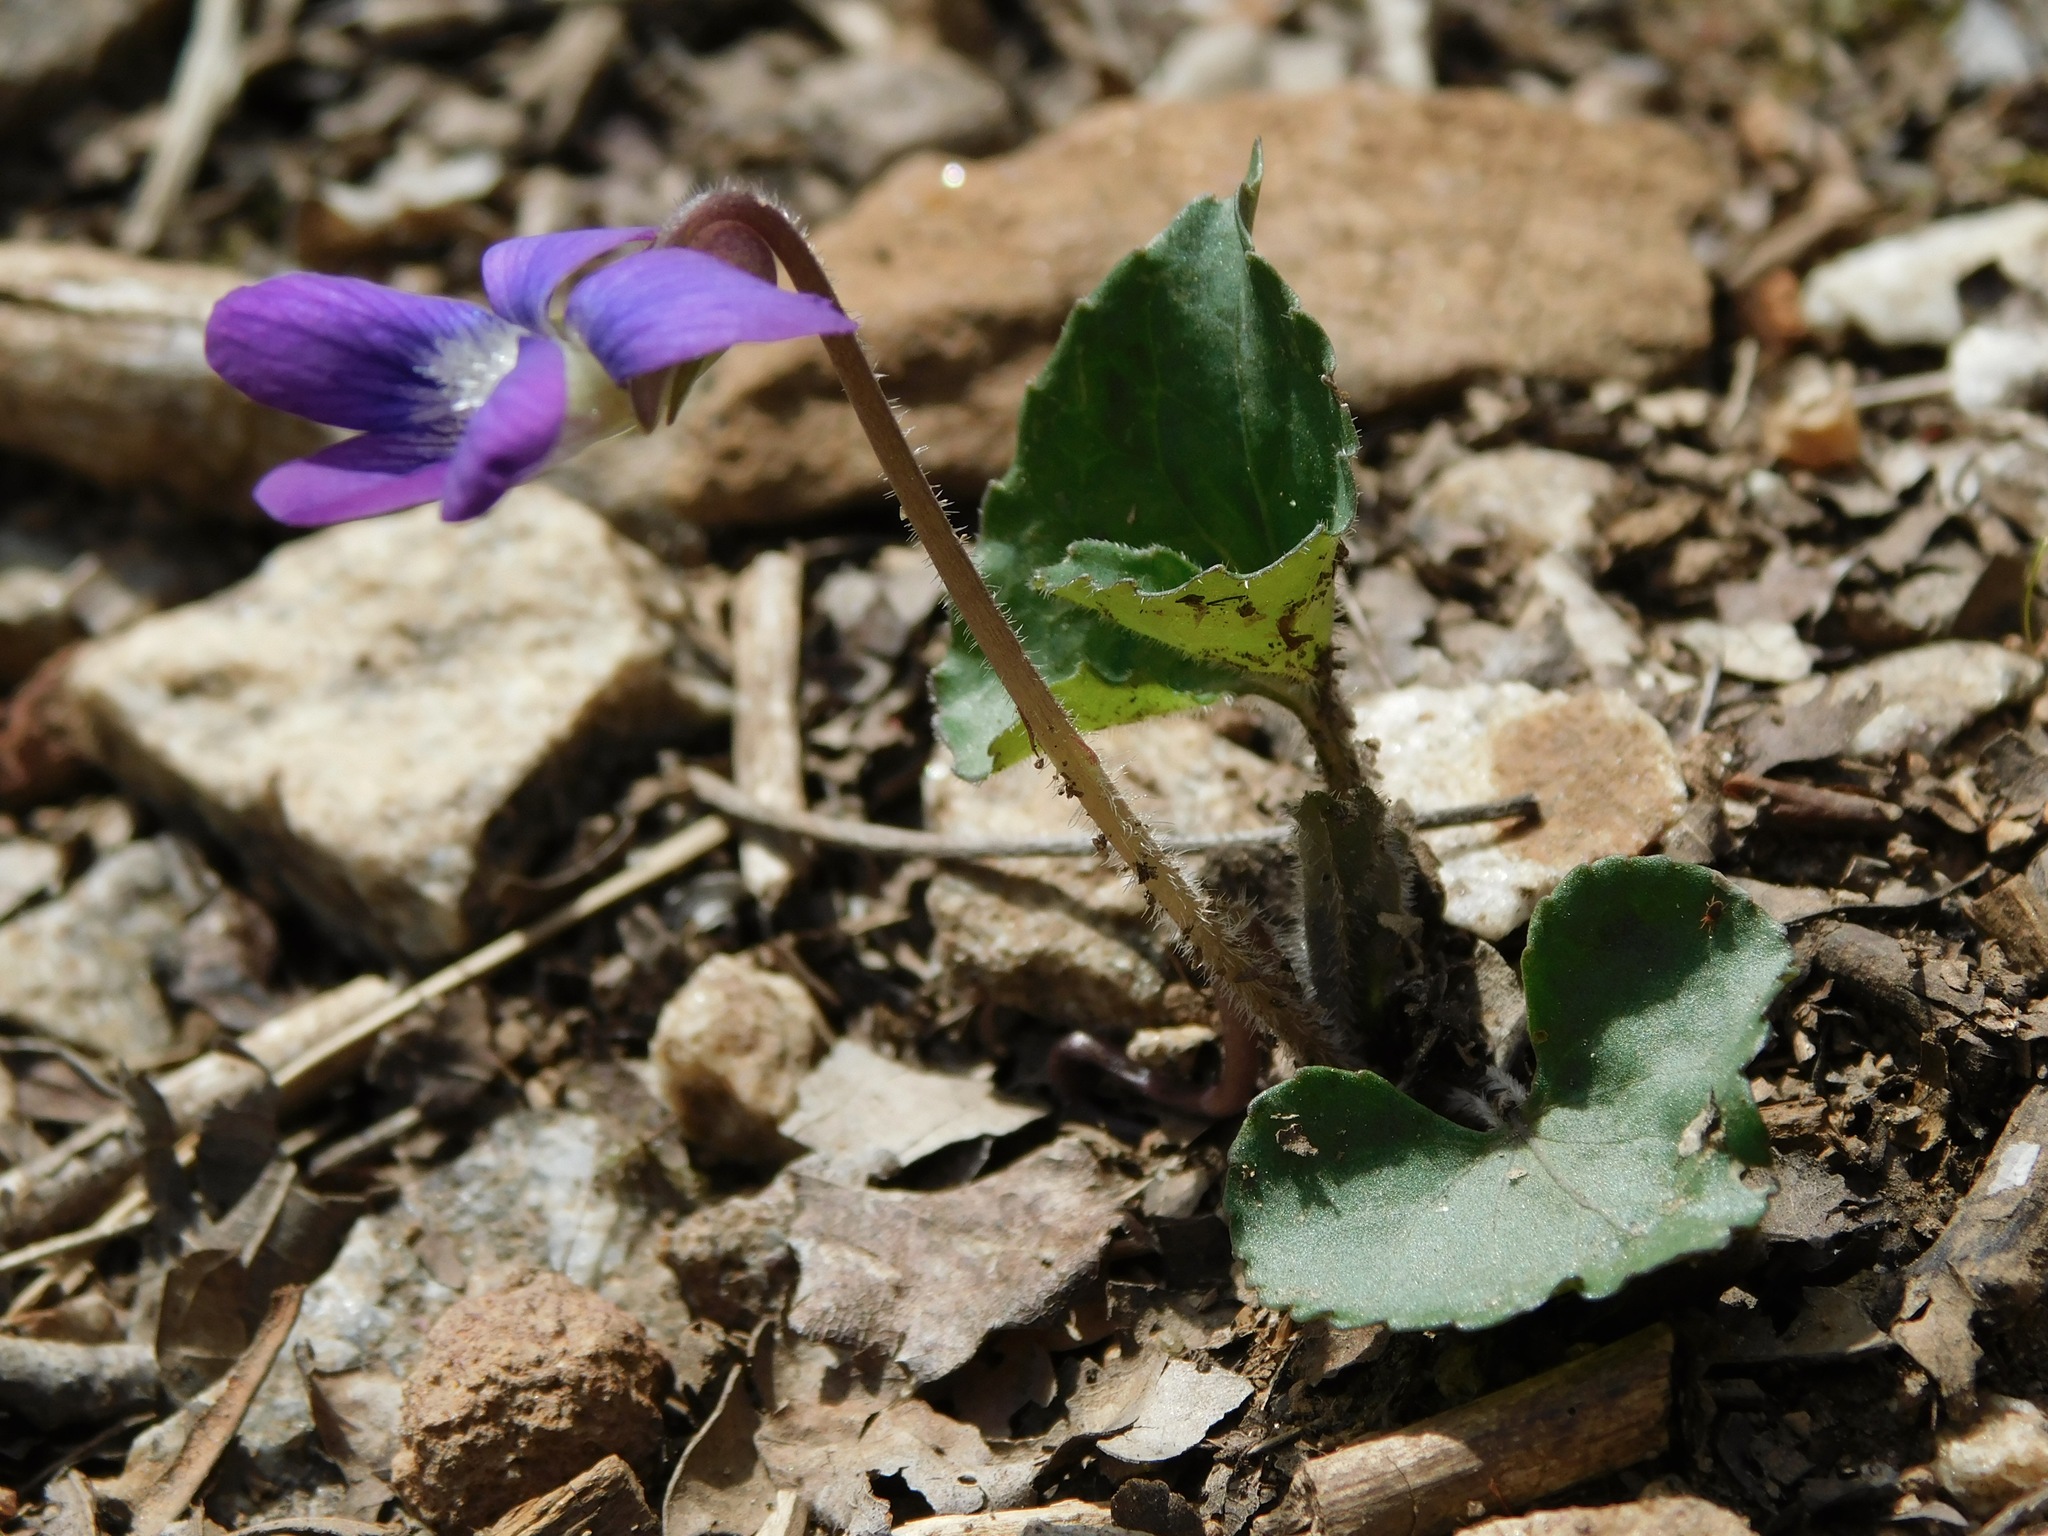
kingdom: Plantae
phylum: Tracheophyta
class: Magnoliopsida
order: Malpighiales
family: Violaceae
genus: Viola
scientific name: Viola hirsutula
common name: Southern wood violet
